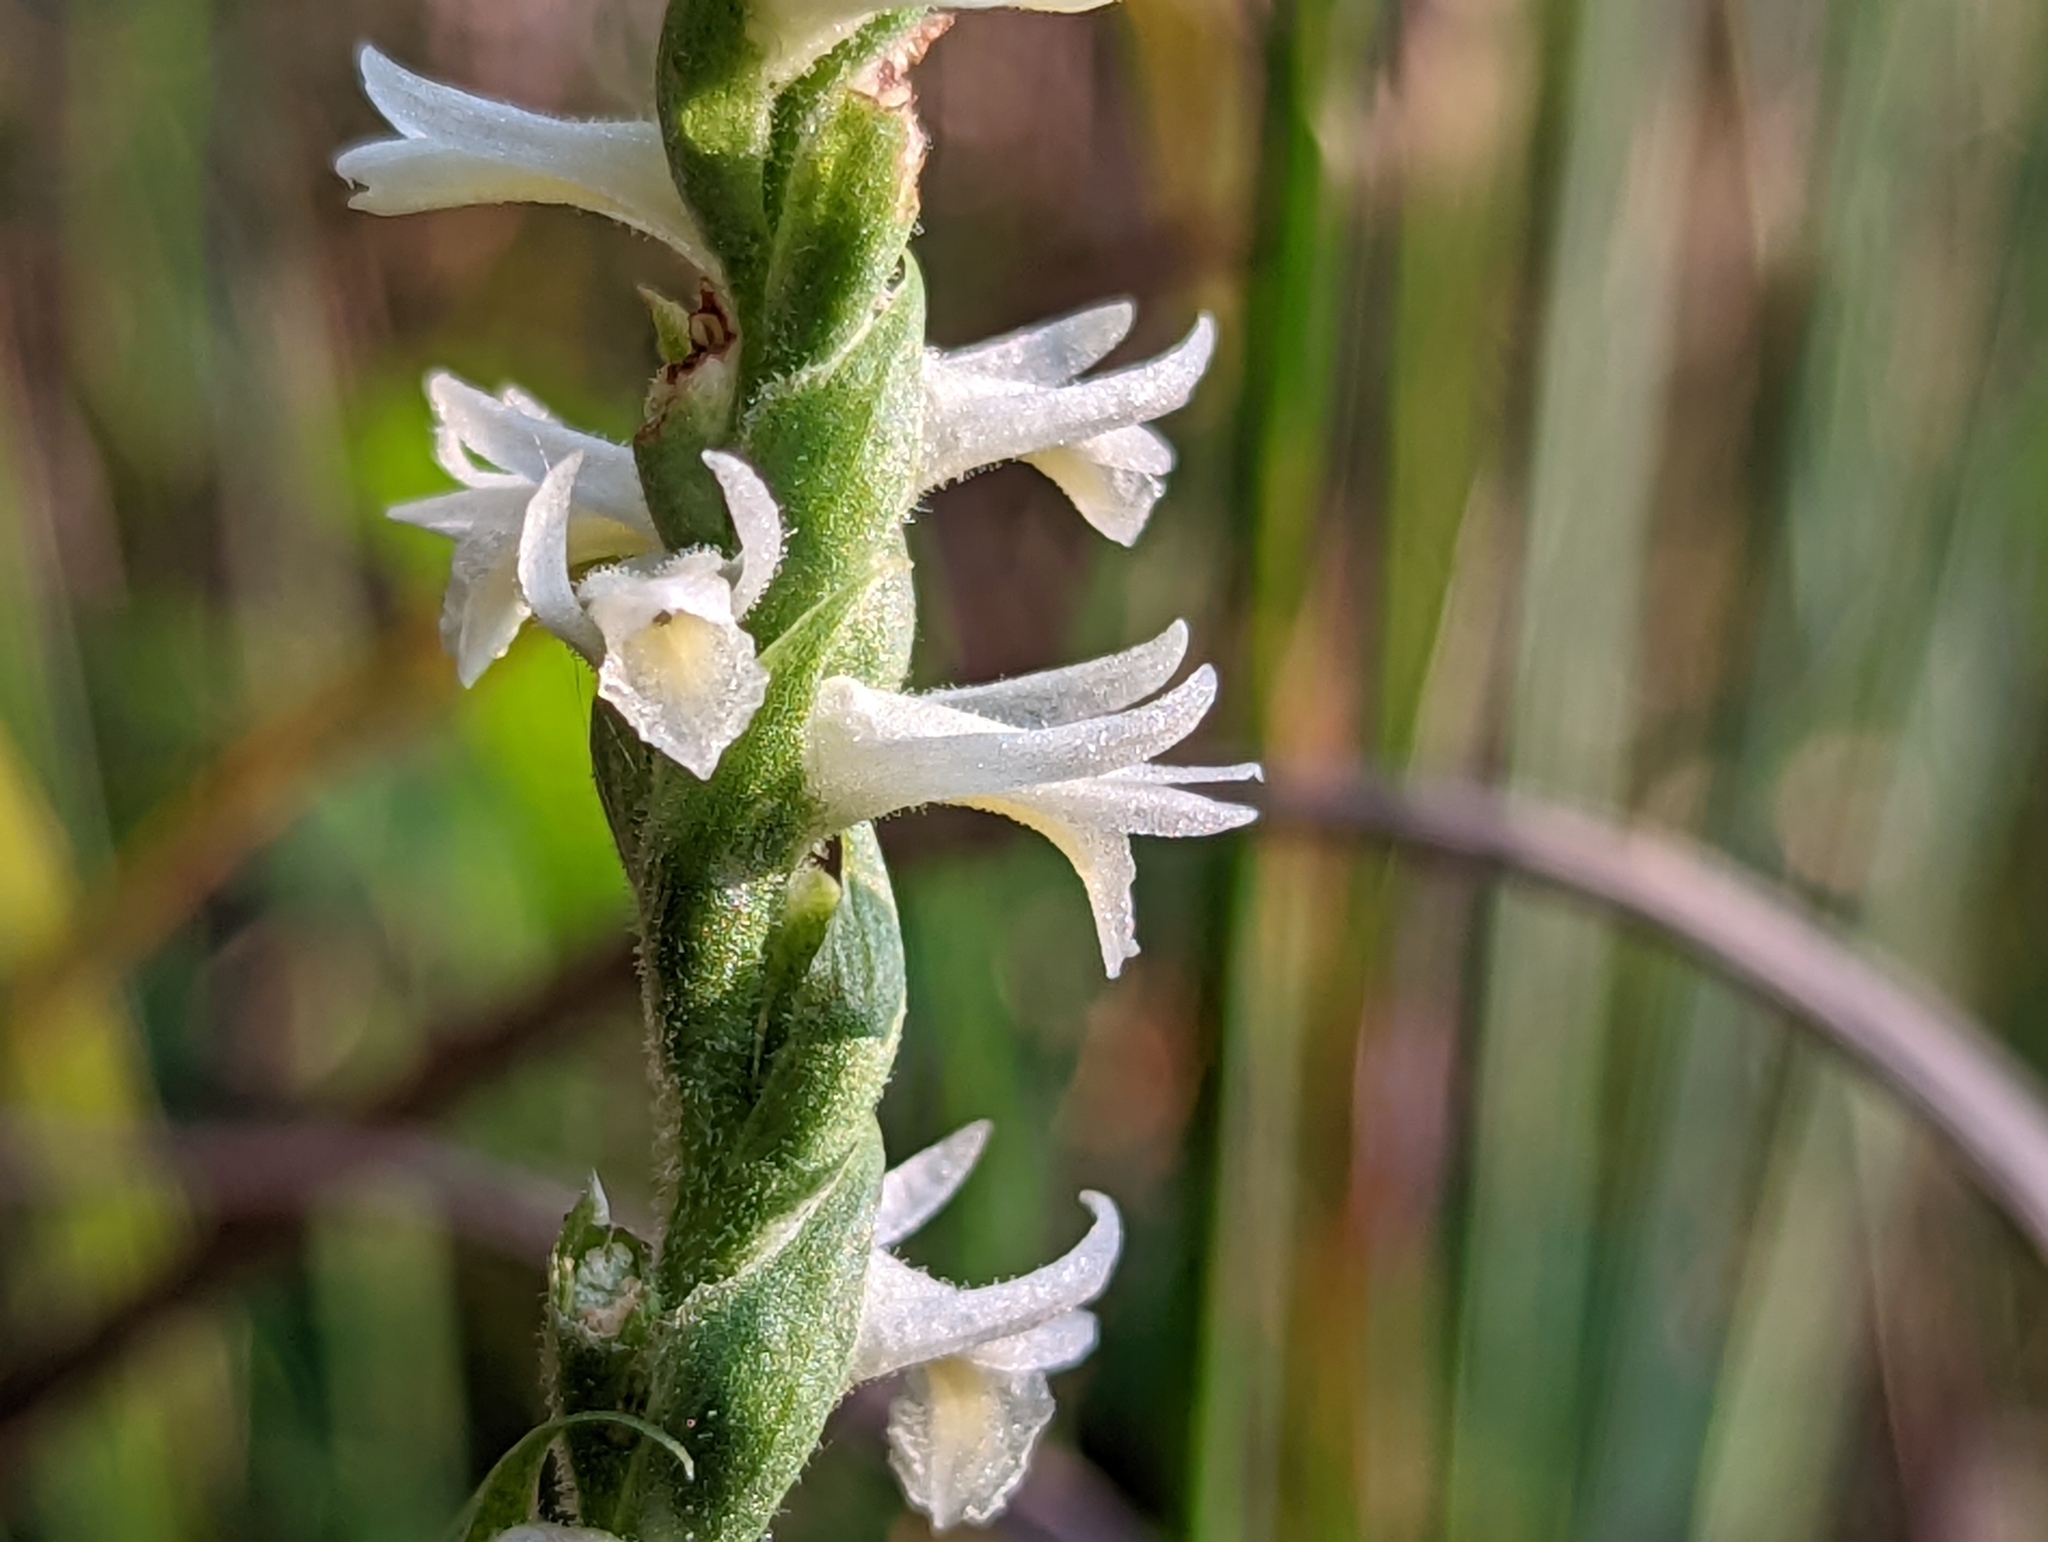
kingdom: Plantae
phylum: Tracheophyta
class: Liliopsida
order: Asparagales
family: Orchidaceae
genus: Spiranthes
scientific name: Spiranthes magnicamporum
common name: Great plains ladies'-tresses
